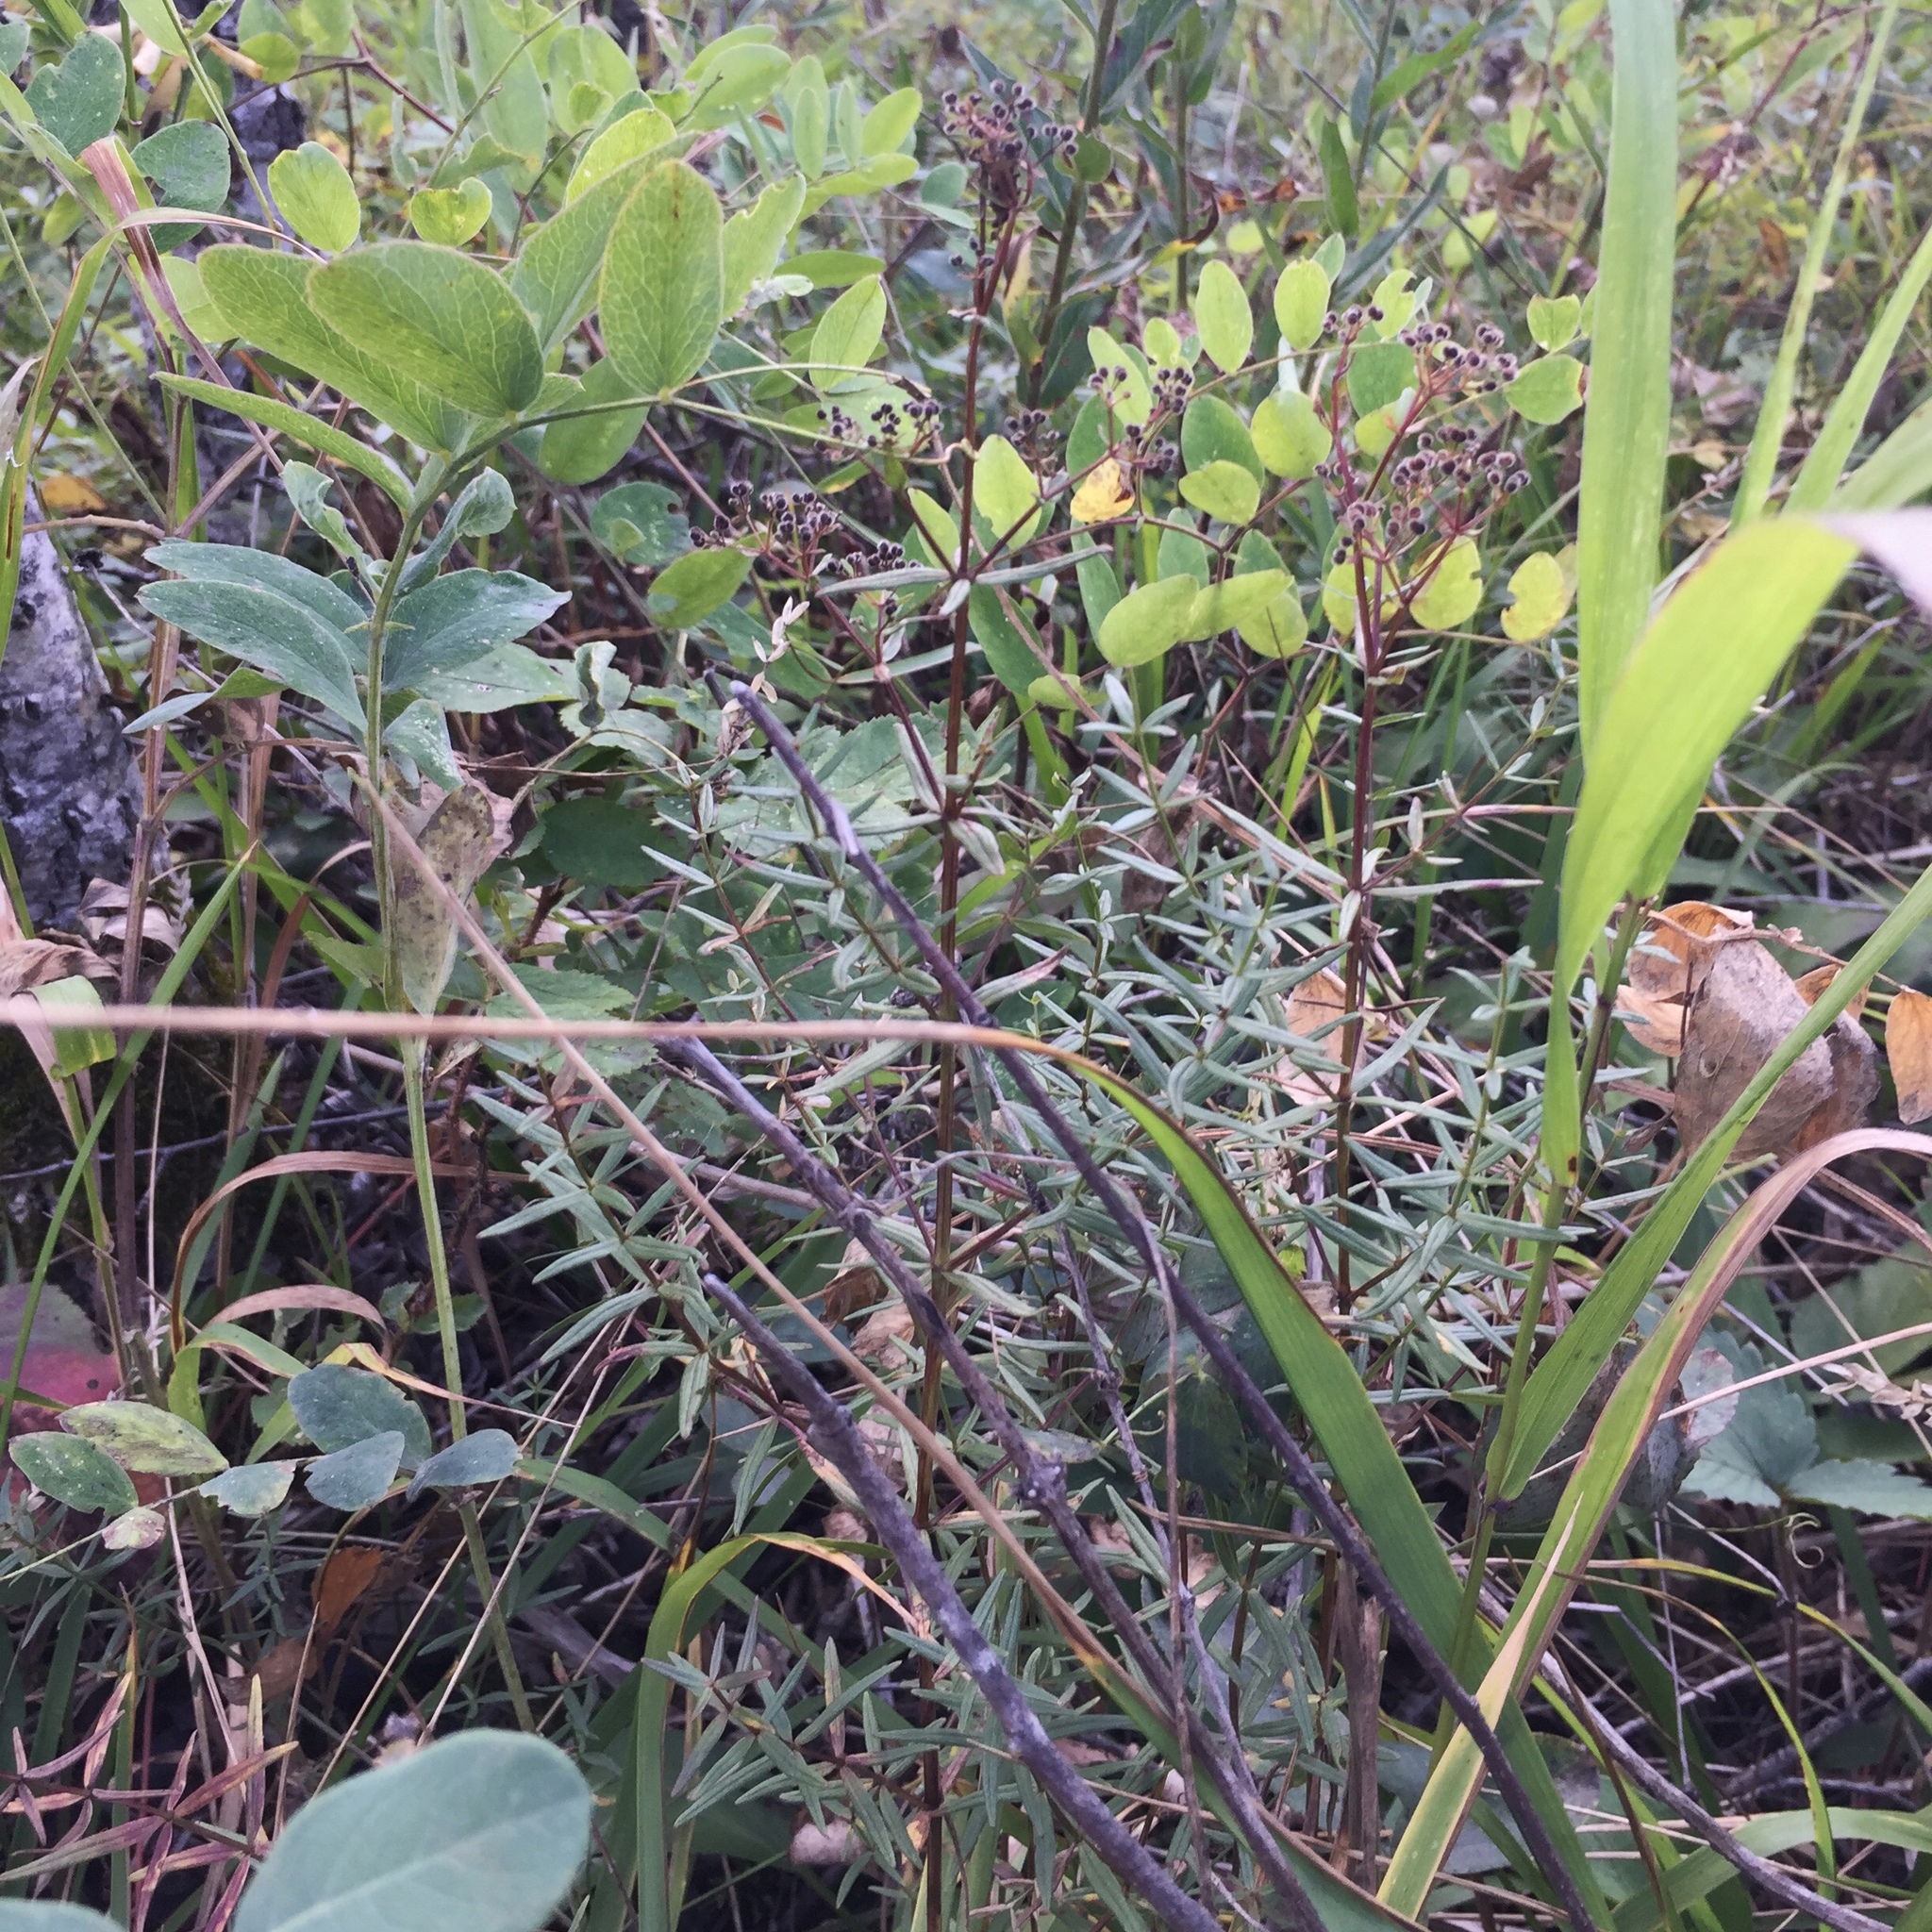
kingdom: Plantae
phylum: Tracheophyta
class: Magnoliopsida
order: Gentianales
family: Rubiaceae
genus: Galium
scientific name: Galium boreale
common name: Northern bedstraw
